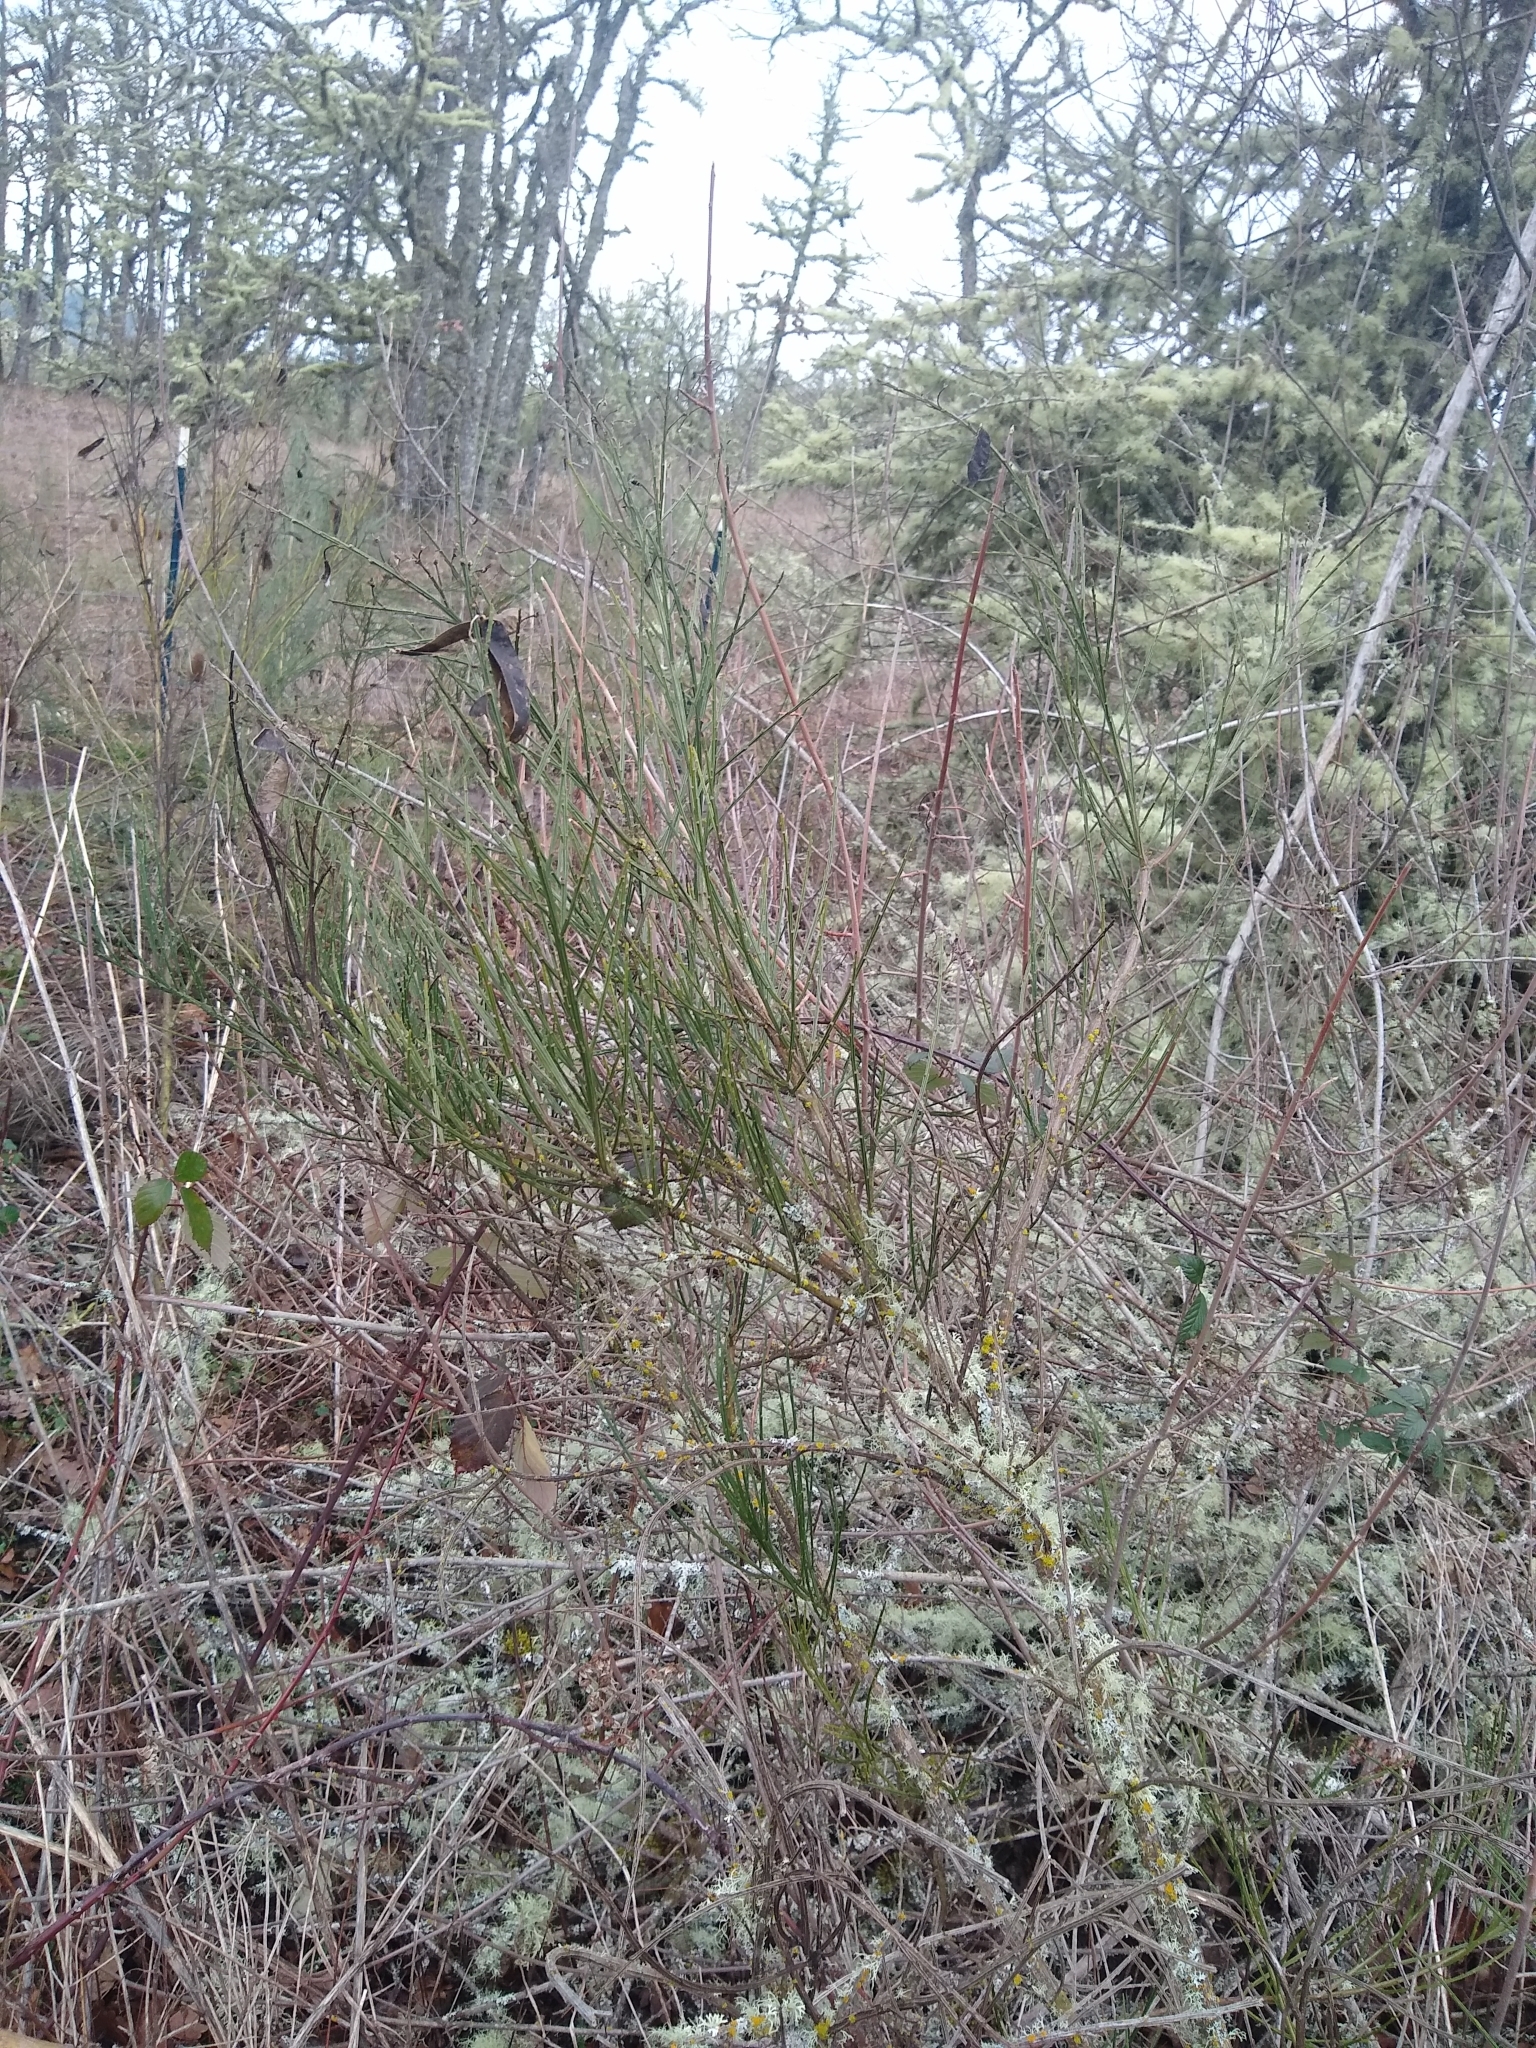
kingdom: Plantae
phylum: Tracheophyta
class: Magnoliopsida
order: Fabales
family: Fabaceae
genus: Cytisus
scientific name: Cytisus scoparius
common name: Scotch broom
